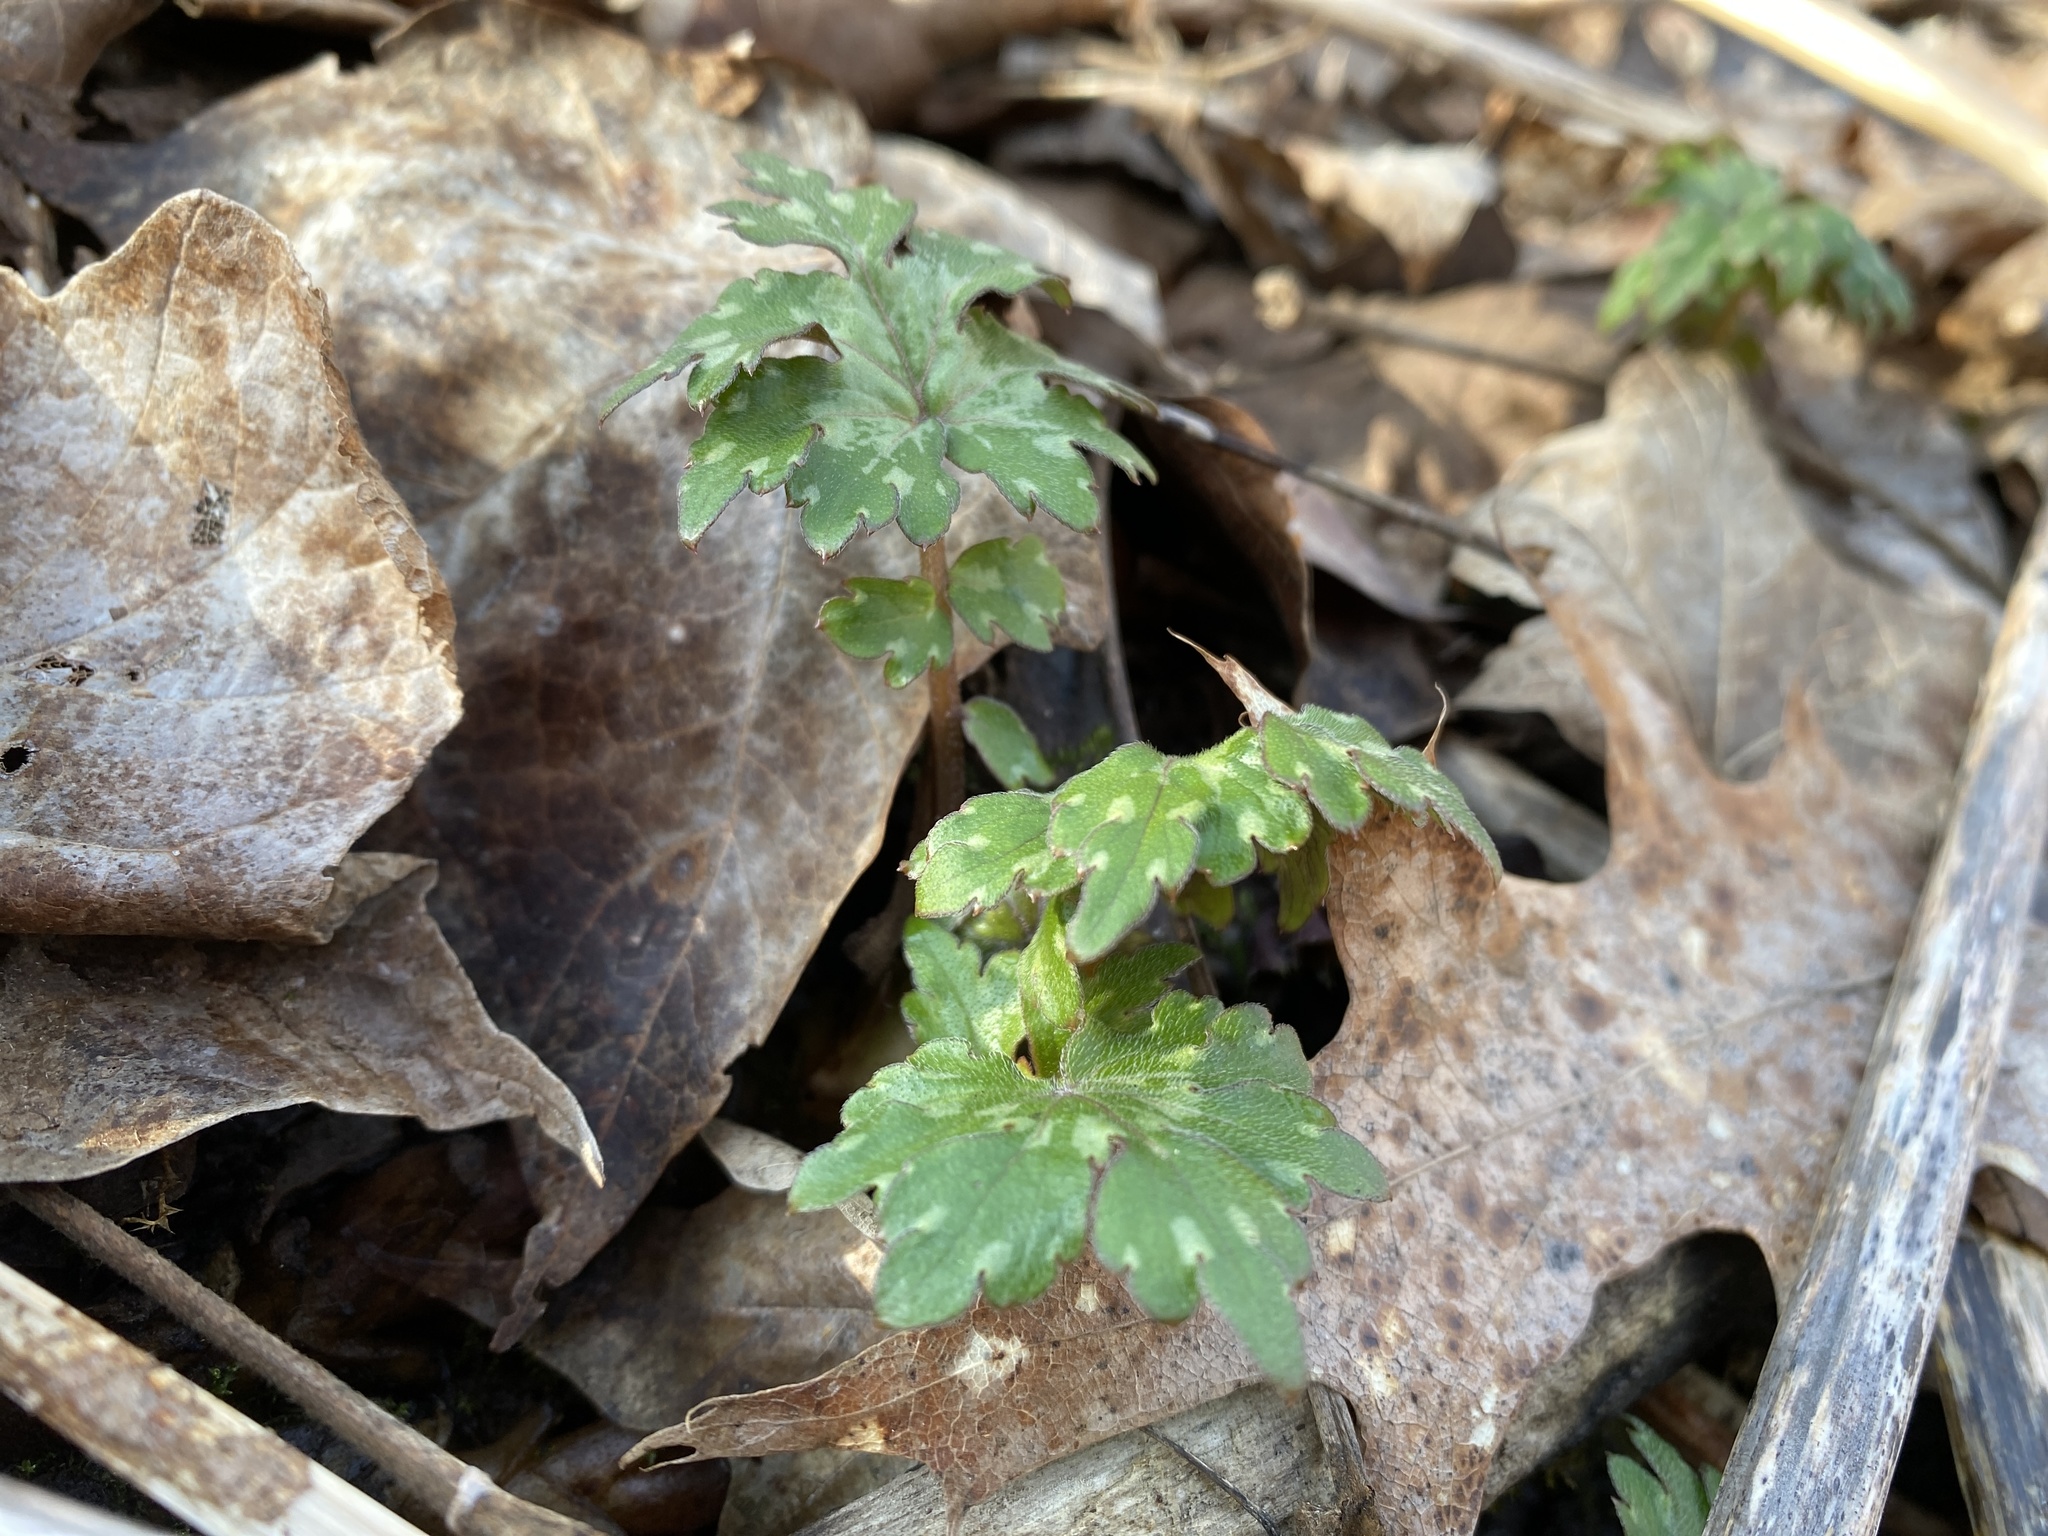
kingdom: Plantae
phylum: Tracheophyta
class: Magnoliopsida
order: Boraginales
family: Hydrophyllaceae
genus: Hydrophyllum
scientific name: Hydrophyllum canadense
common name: Canada waterleaf
